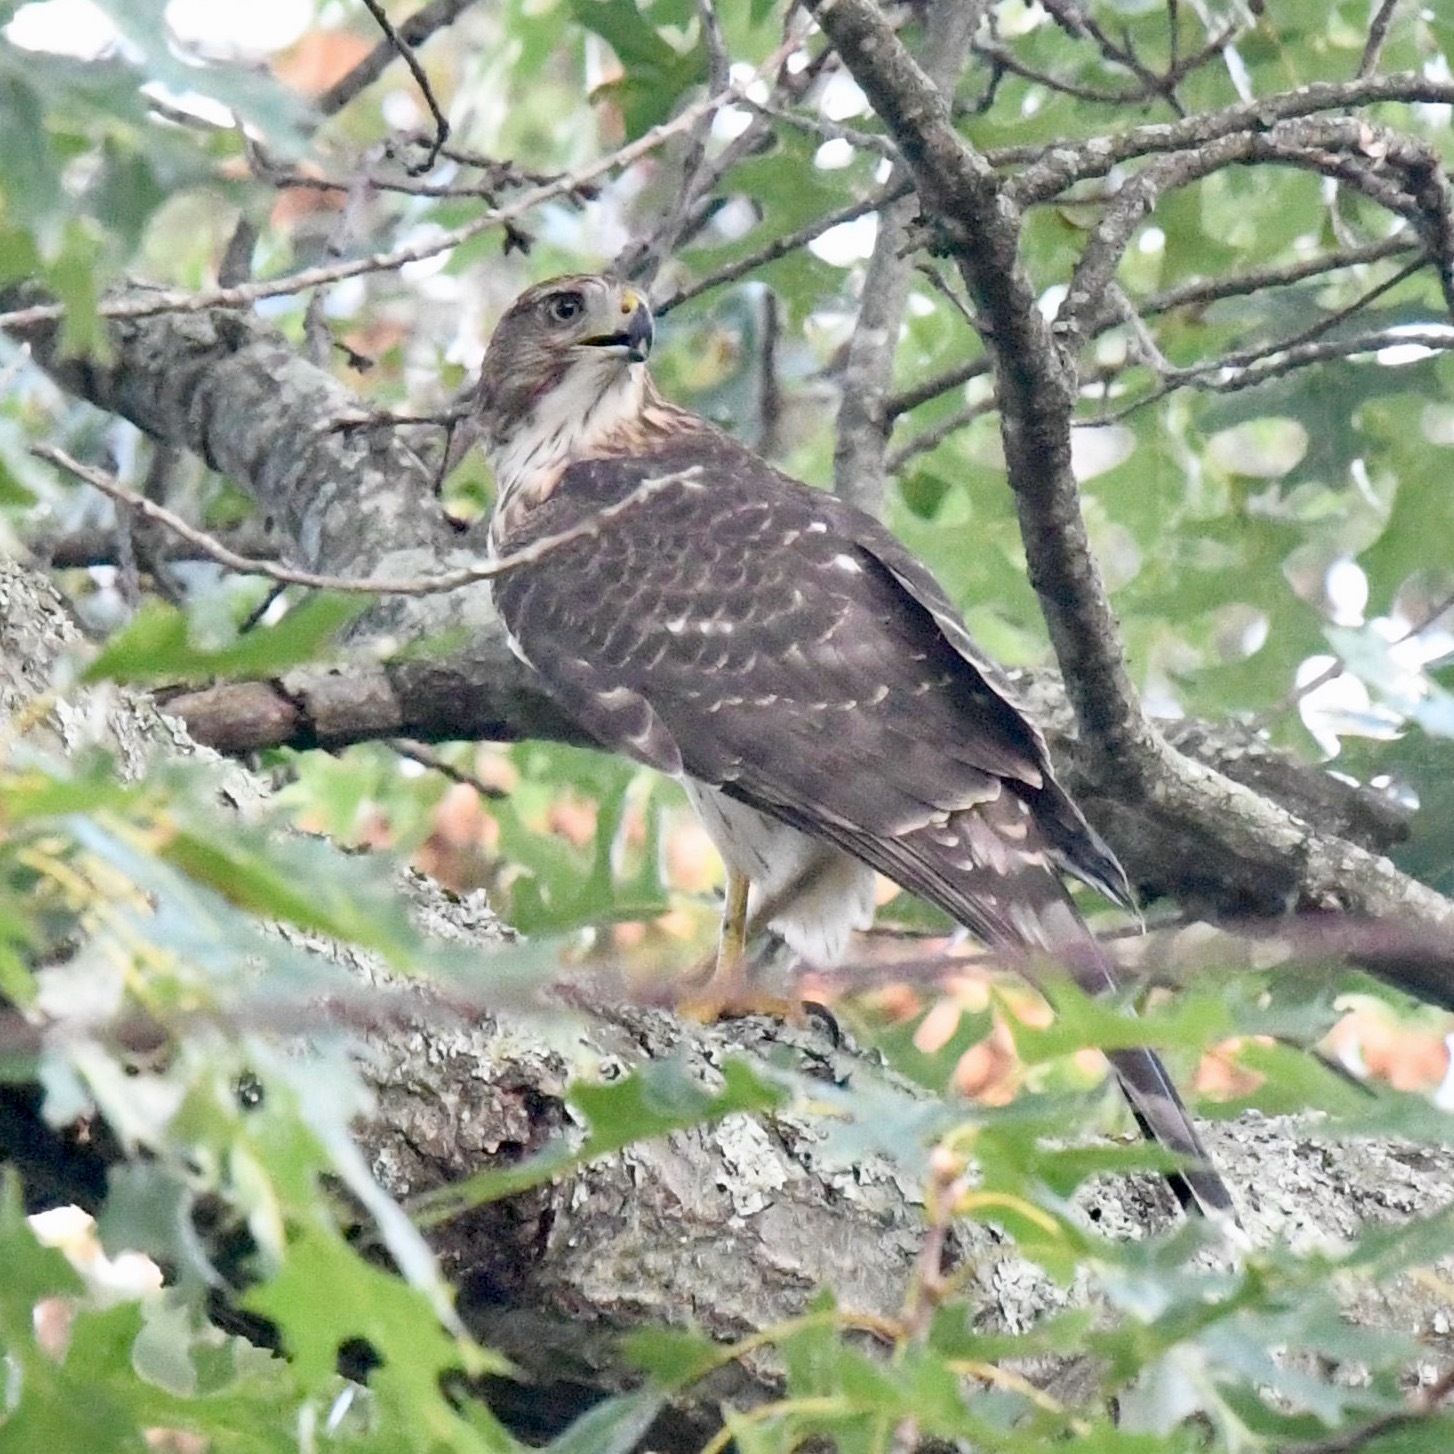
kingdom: Animalia
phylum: Chordata
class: Aves
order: Accipitriformes
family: Accipitridae
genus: Accipiter
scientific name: Accipiter cooperii
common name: Cooper's hawk
